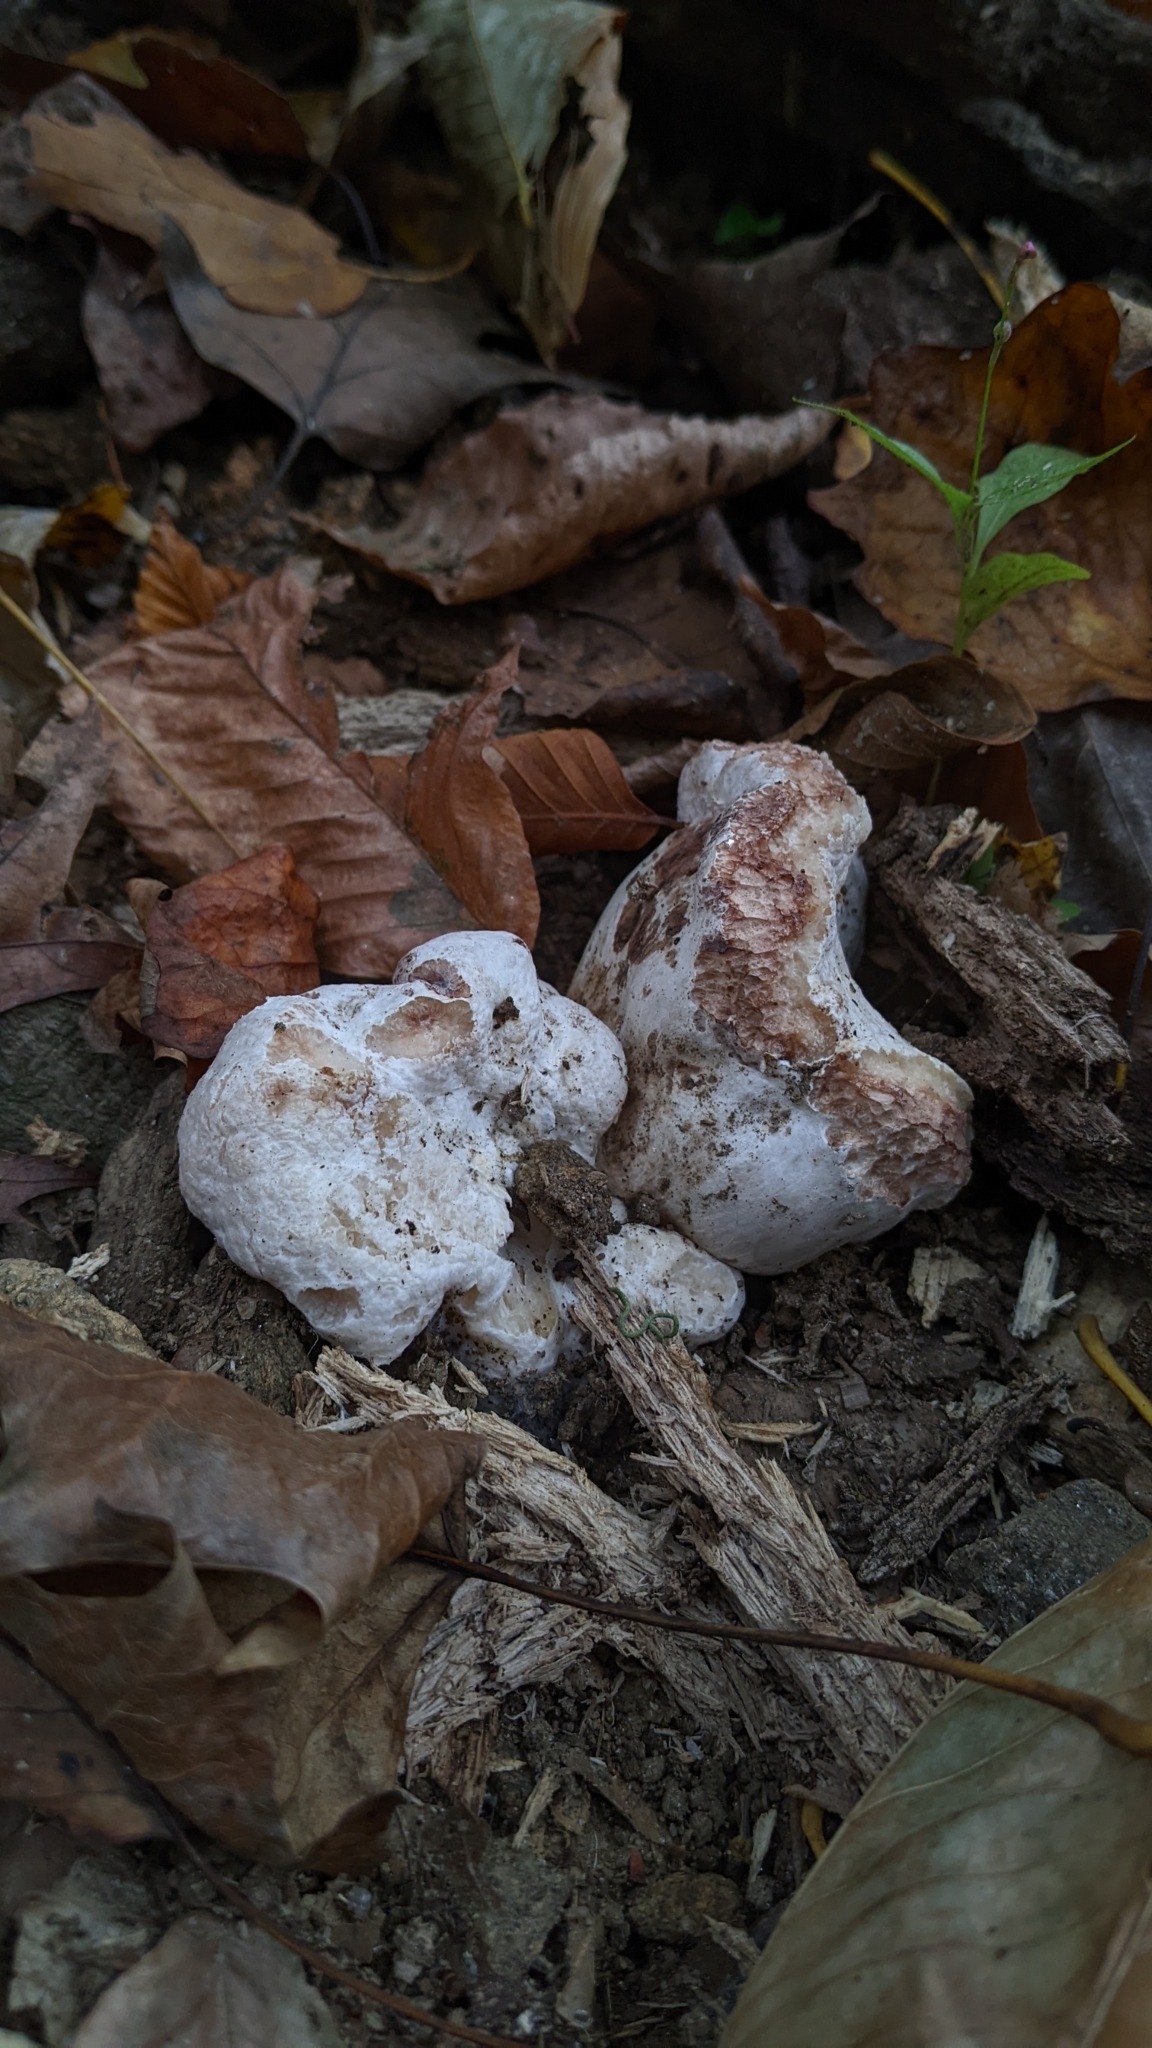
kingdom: Fungi
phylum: Basidiomycota
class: Agaricomycetes
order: Agaricales
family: Entolomataceae
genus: Entoloma
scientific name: Entoloma abortivum
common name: Aborted entoloma
